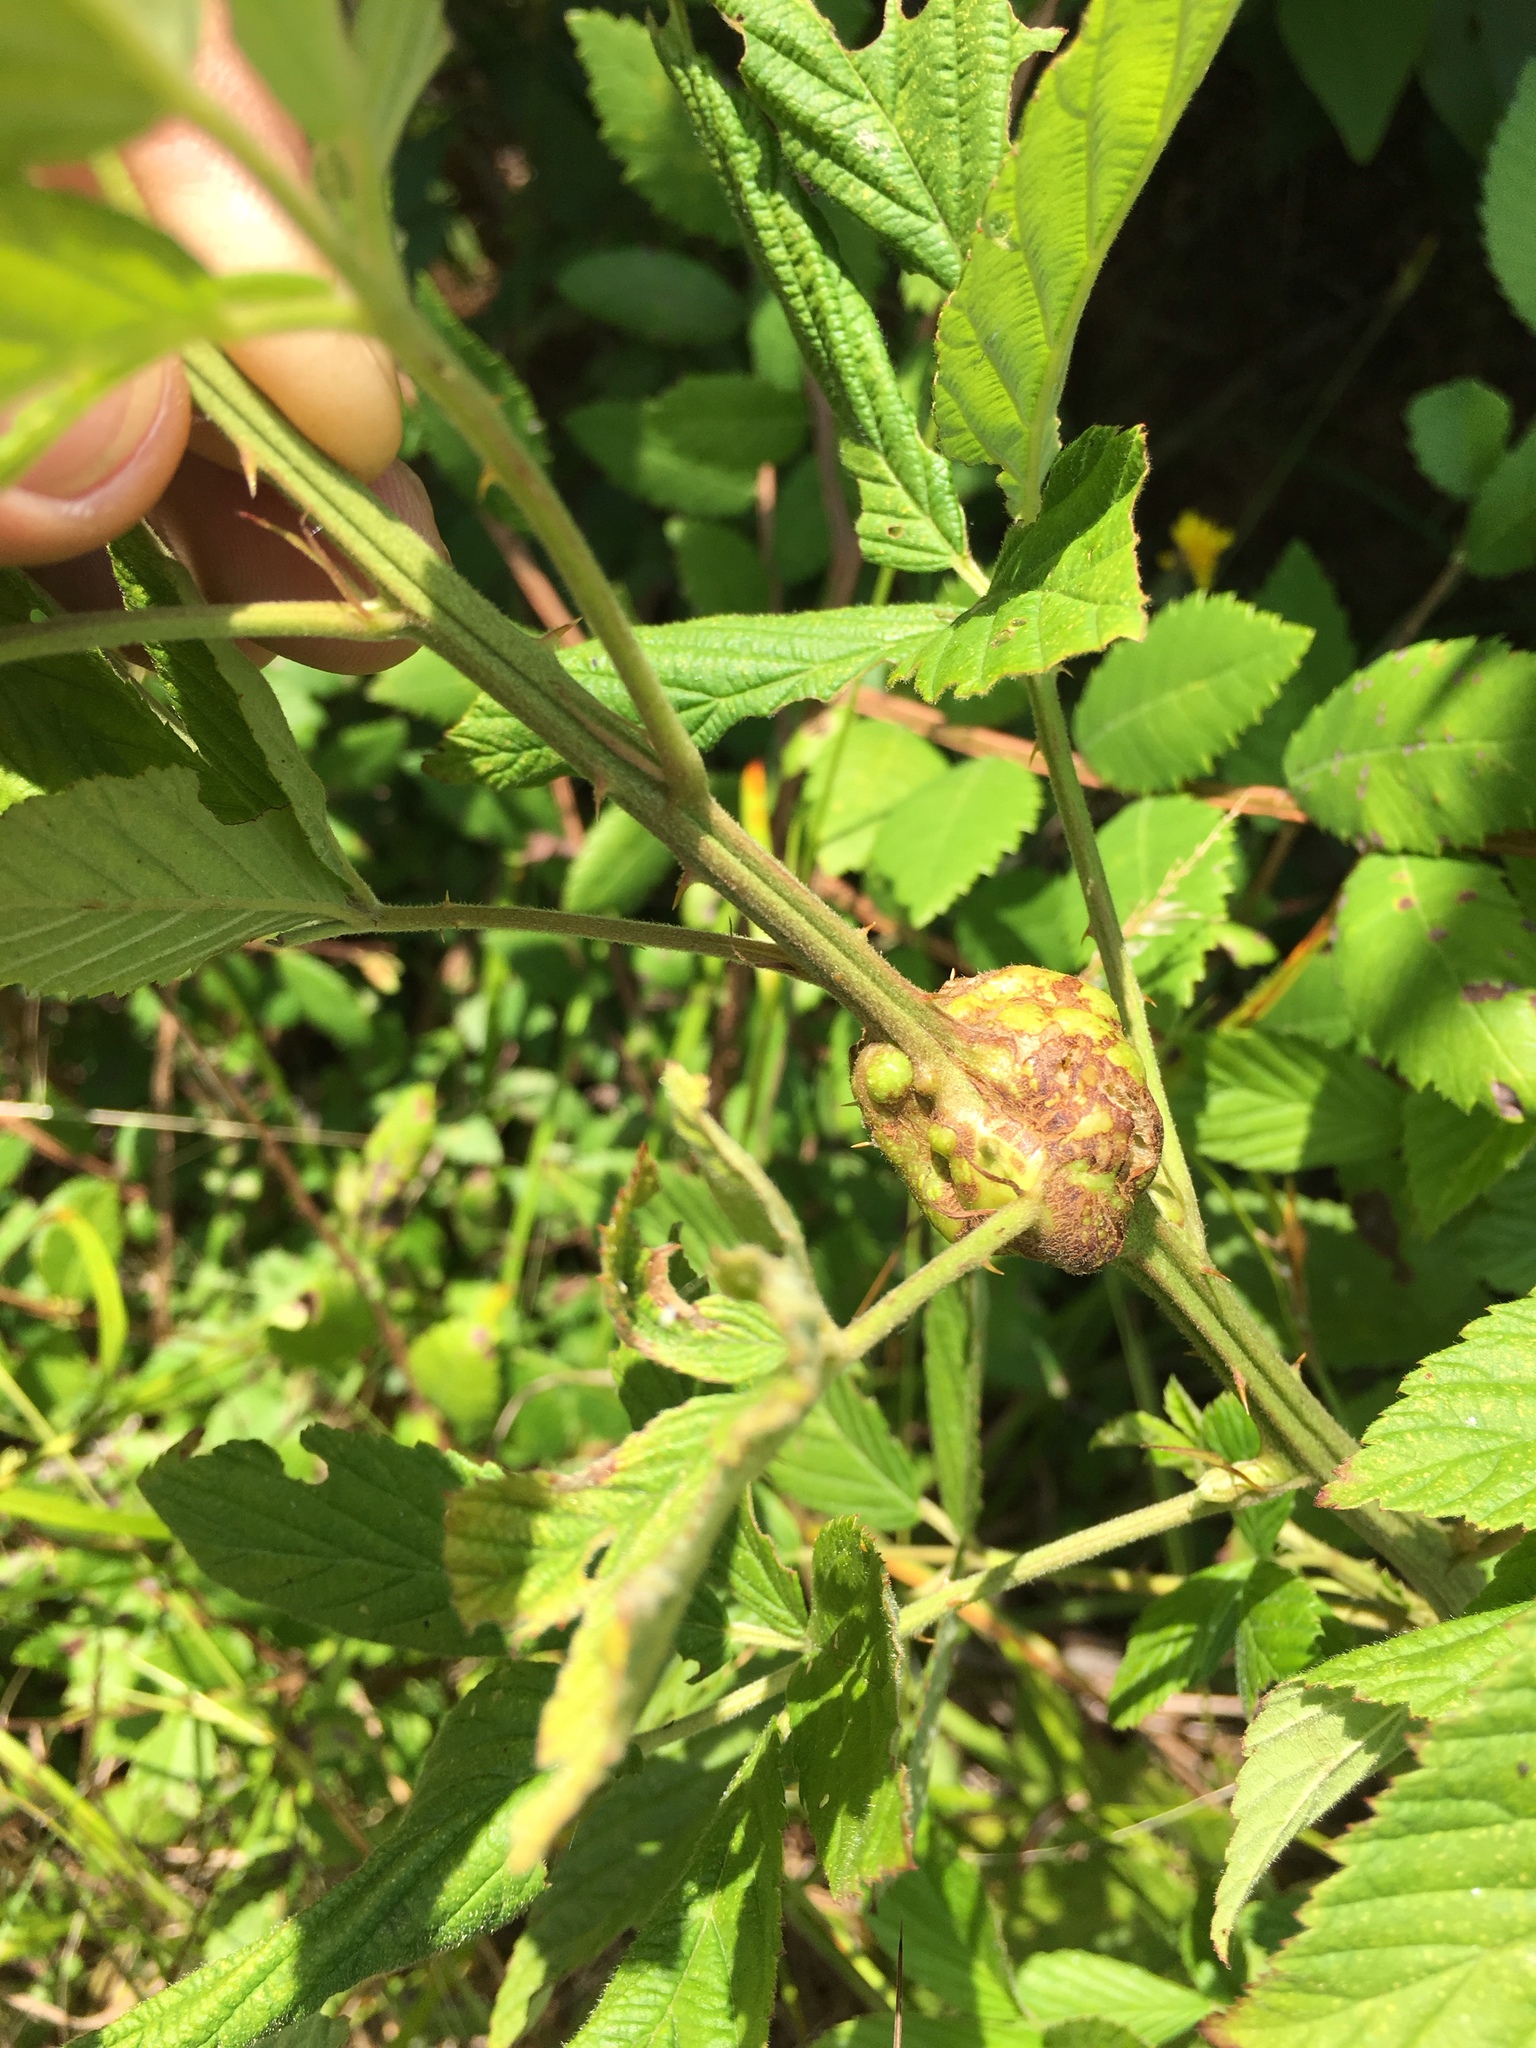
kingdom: Animalia
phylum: Arthropoda
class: Insecta
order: Hymenoptera
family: Cynipidae
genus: Diastrophus
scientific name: Diastrophus
